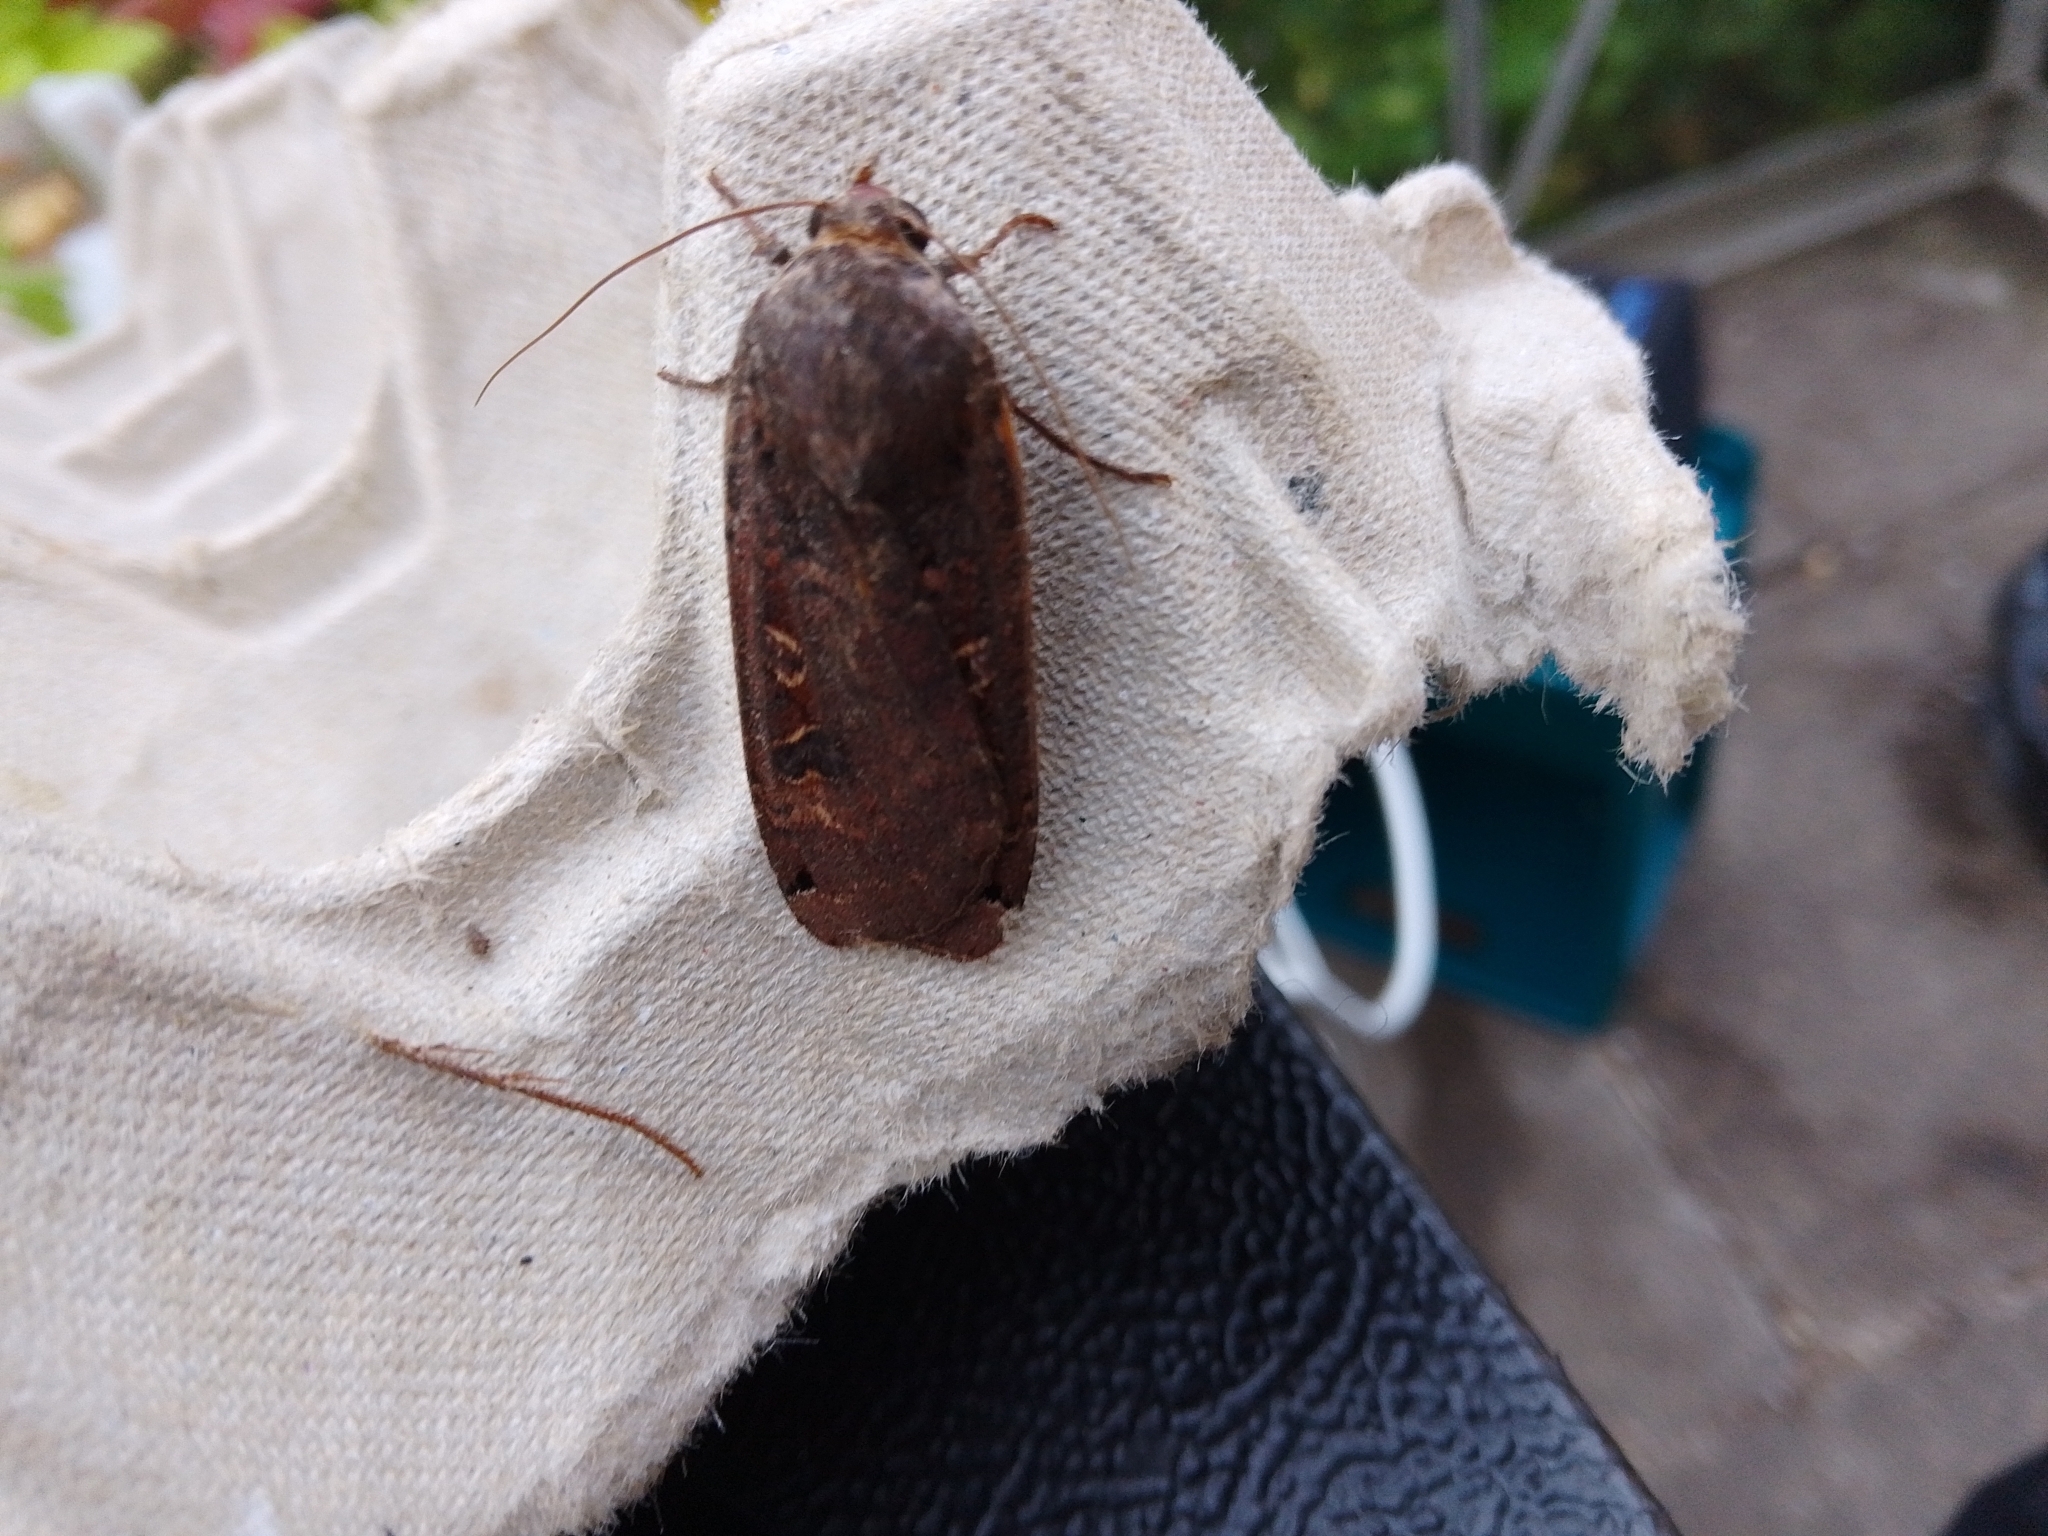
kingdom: Animalia
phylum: Arthropoda
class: Insecta
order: Lepidoptera
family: Noctuidae
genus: Noctua
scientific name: Noctua pronuba
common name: Large yellow underwing
